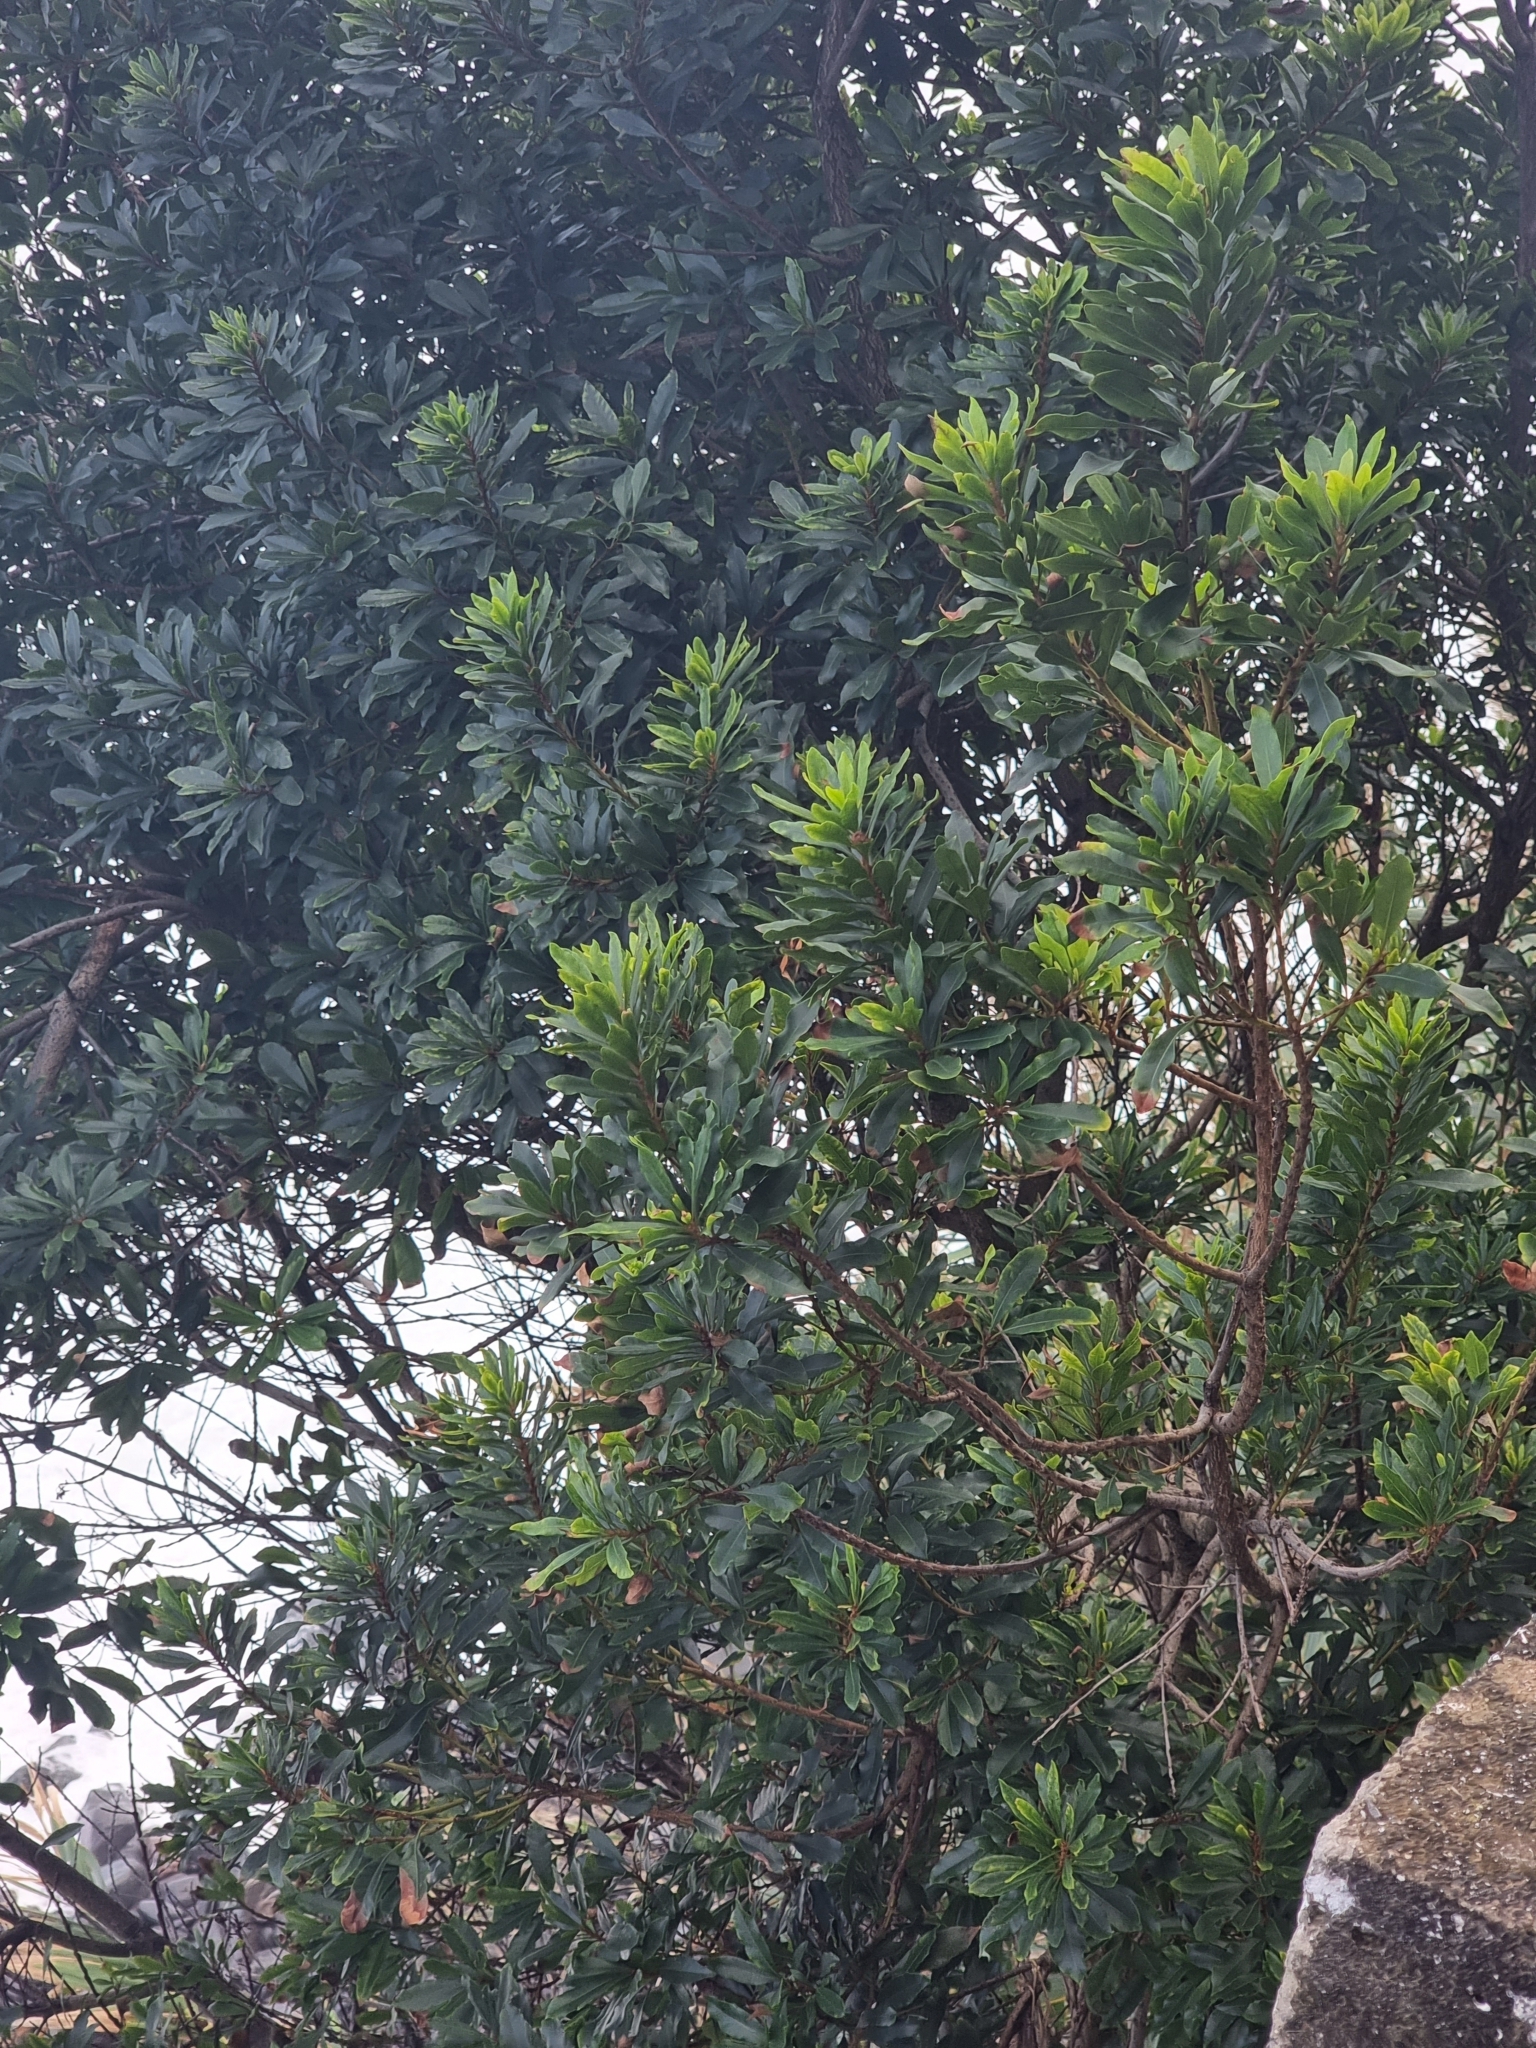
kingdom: Plantae
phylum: Tracheophyta
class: Magnoliopsida
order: Fagales
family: Myricaceae
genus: Morella
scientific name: Morella faya
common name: Firetree
